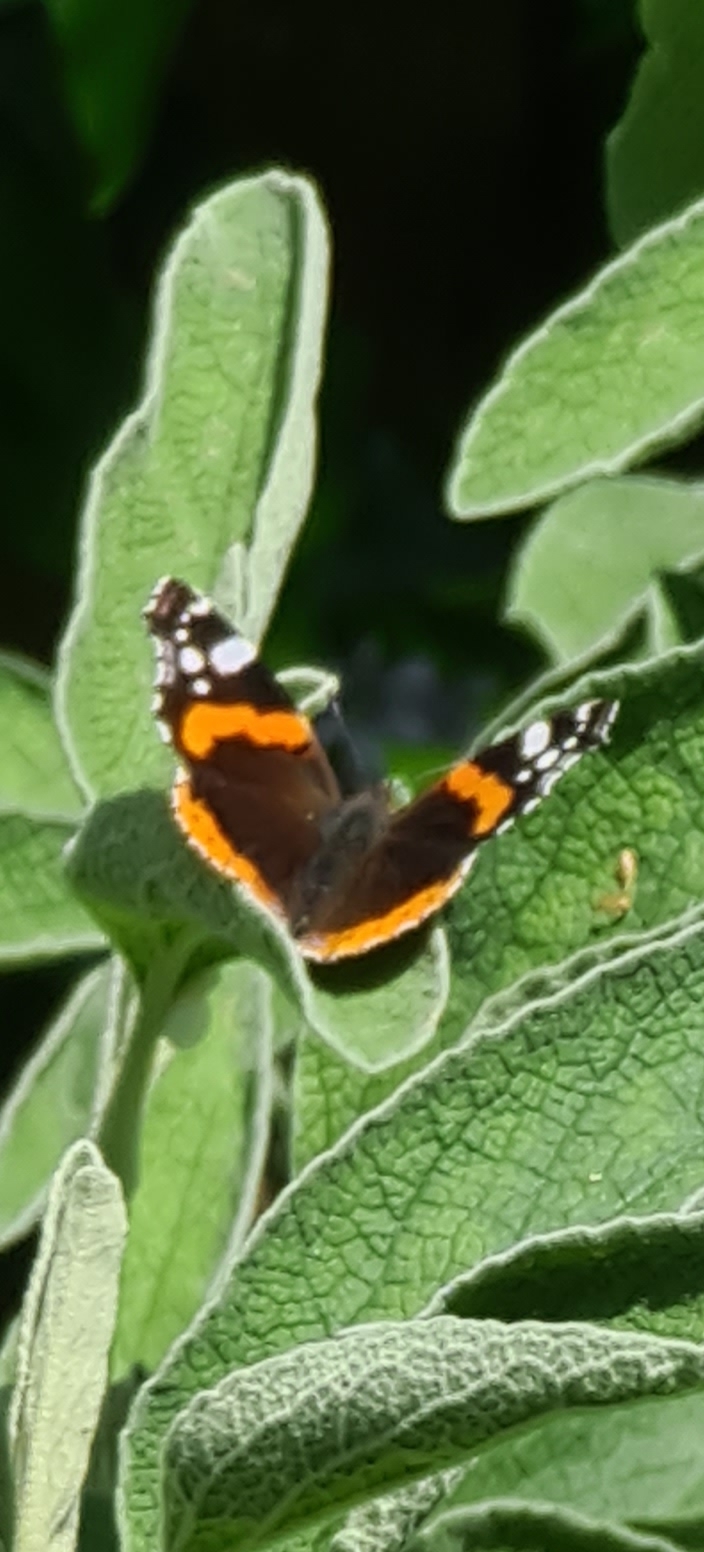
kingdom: Animalia
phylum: Arthropoda
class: Insecta
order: Lepidoptera
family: Nymphalidae
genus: Vanessa
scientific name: Vanessa atalanta
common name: Red admiral
